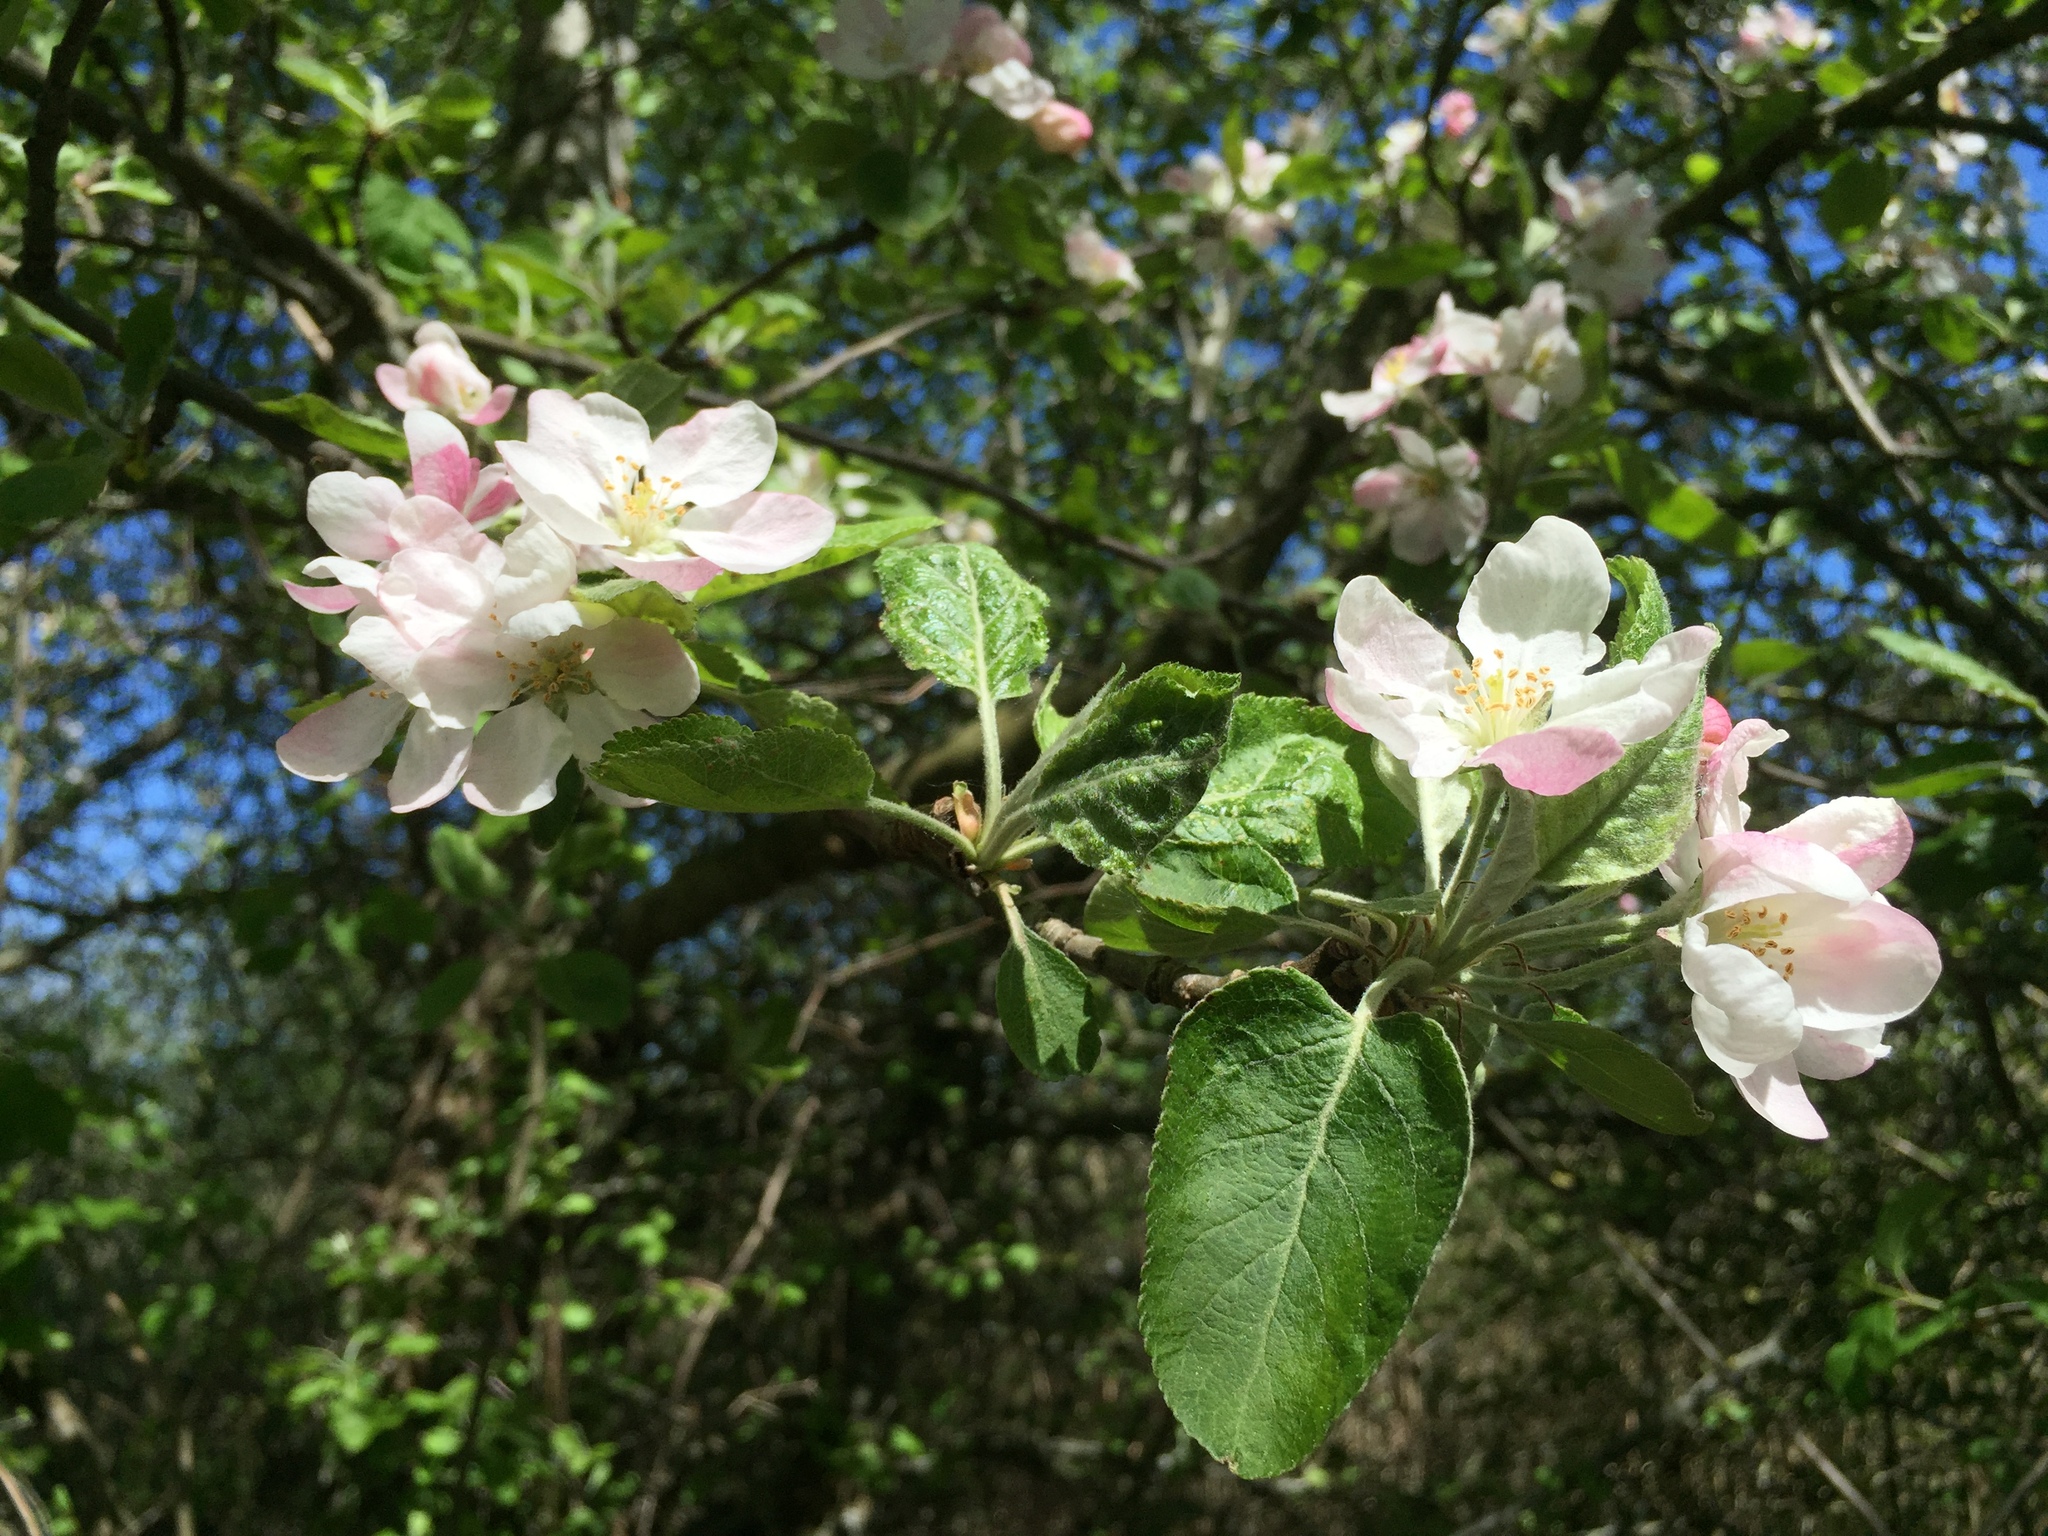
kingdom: Plantae
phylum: Tracheophyta
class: Magnoliopsida
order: Rosales
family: Rosaceae
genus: Malus
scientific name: Malus domestica
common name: Apple
